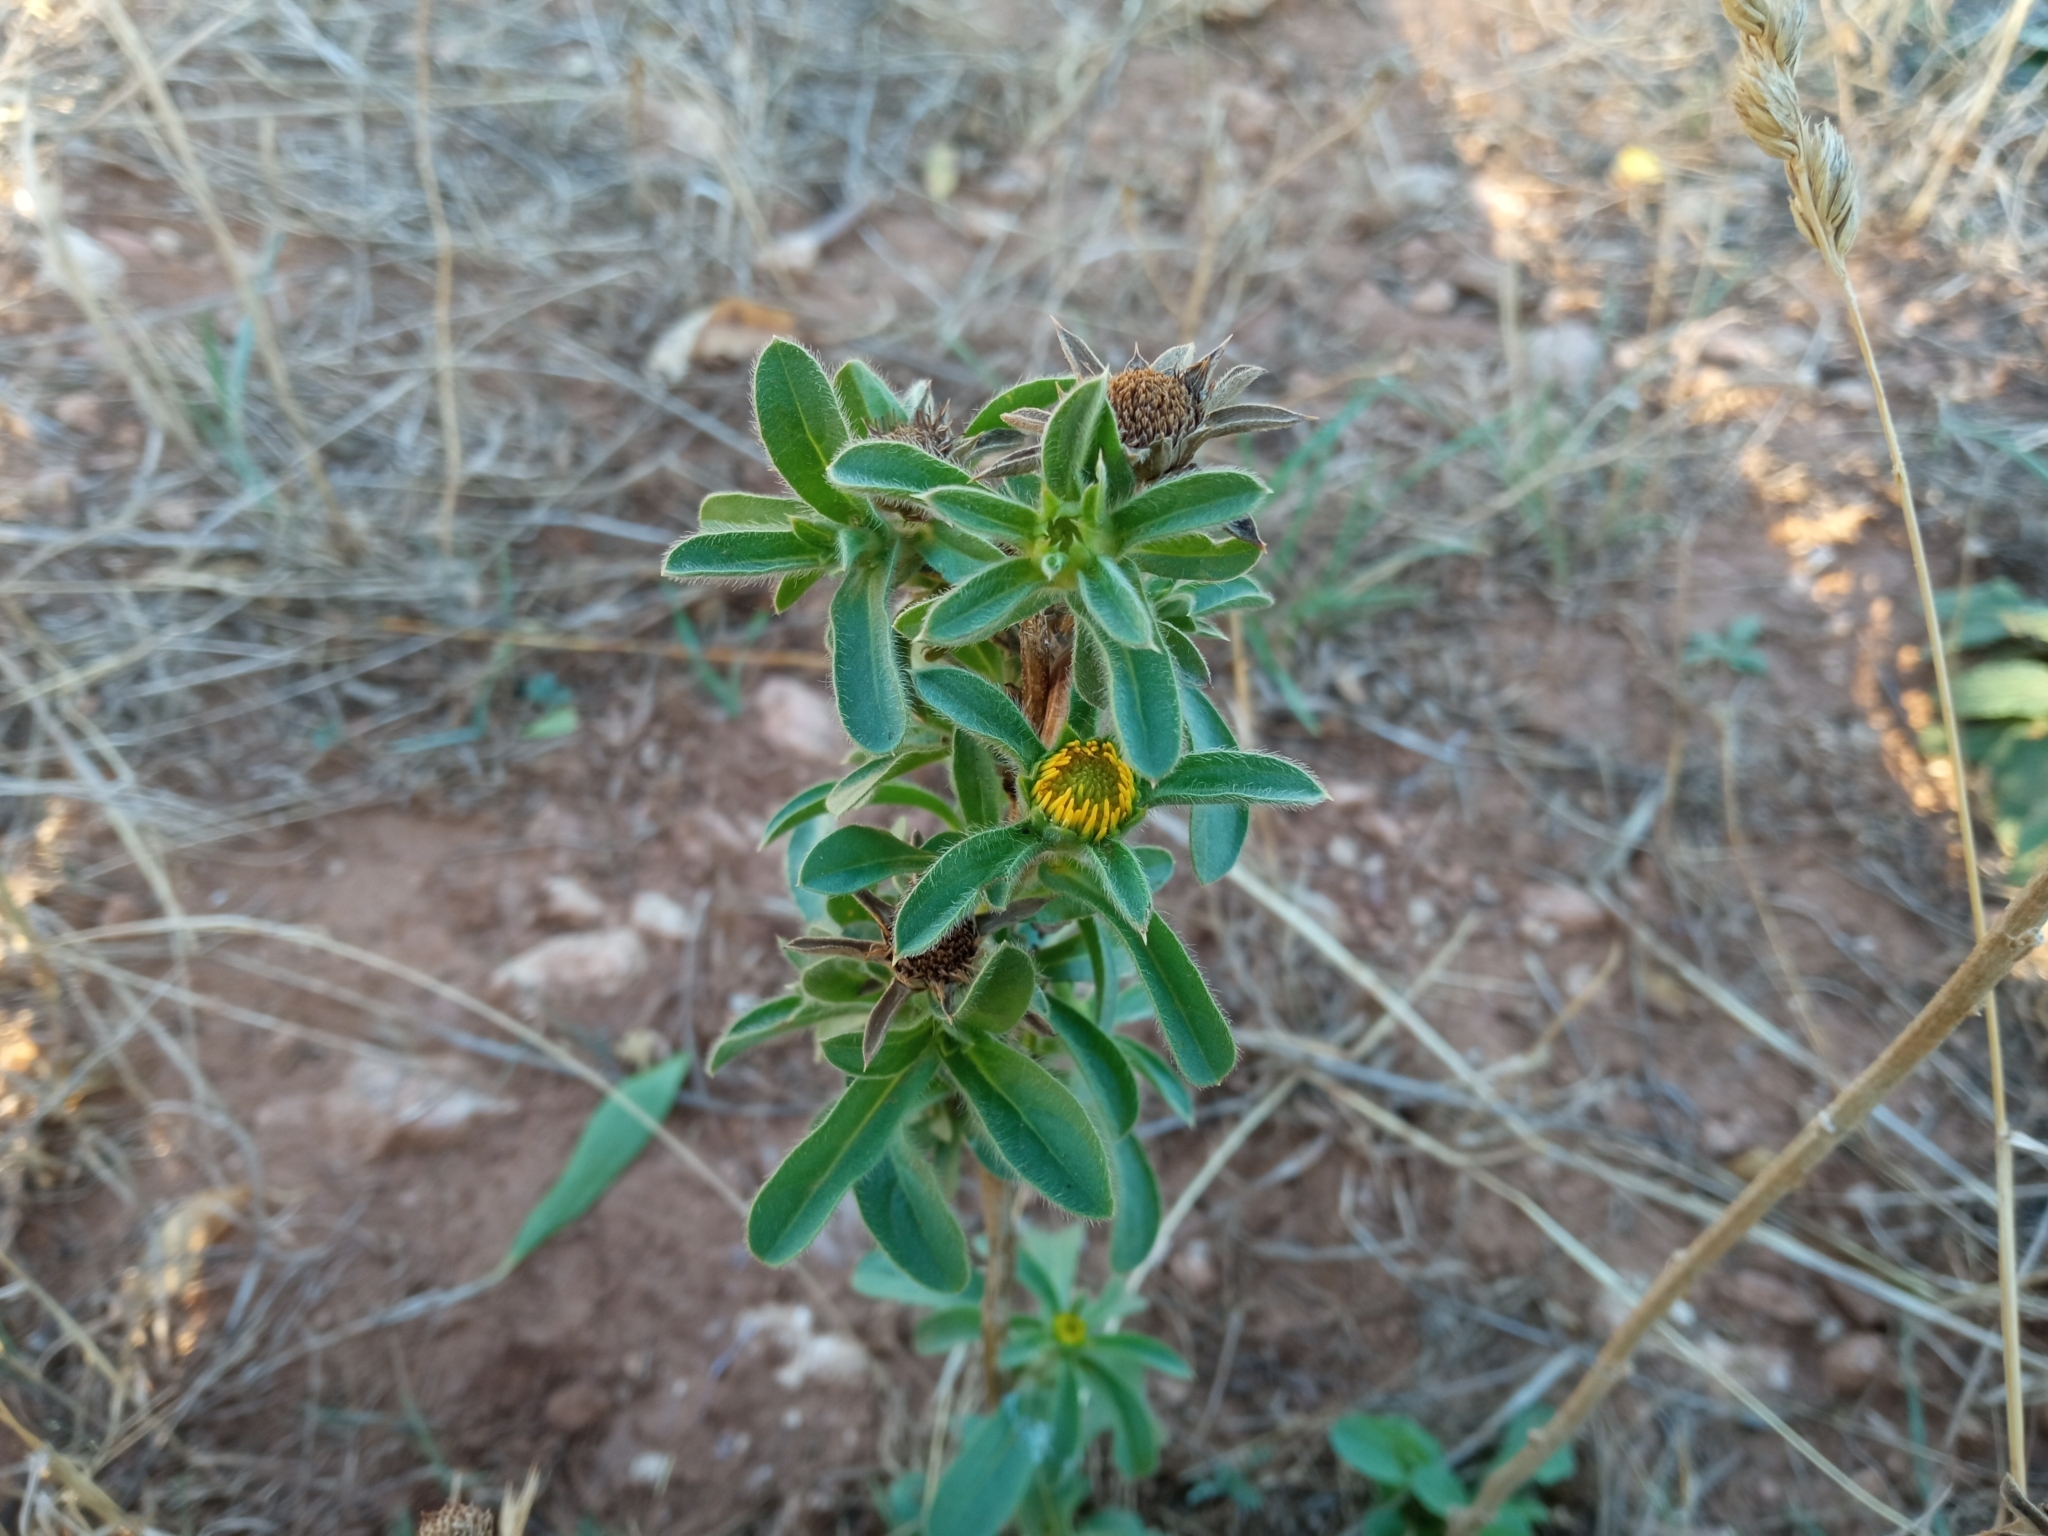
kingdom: Plantae
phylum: Tracheophyta
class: Magnoliopsida
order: Asterales
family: Asteraceae
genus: Pallenis
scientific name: Pallenis spinosa
